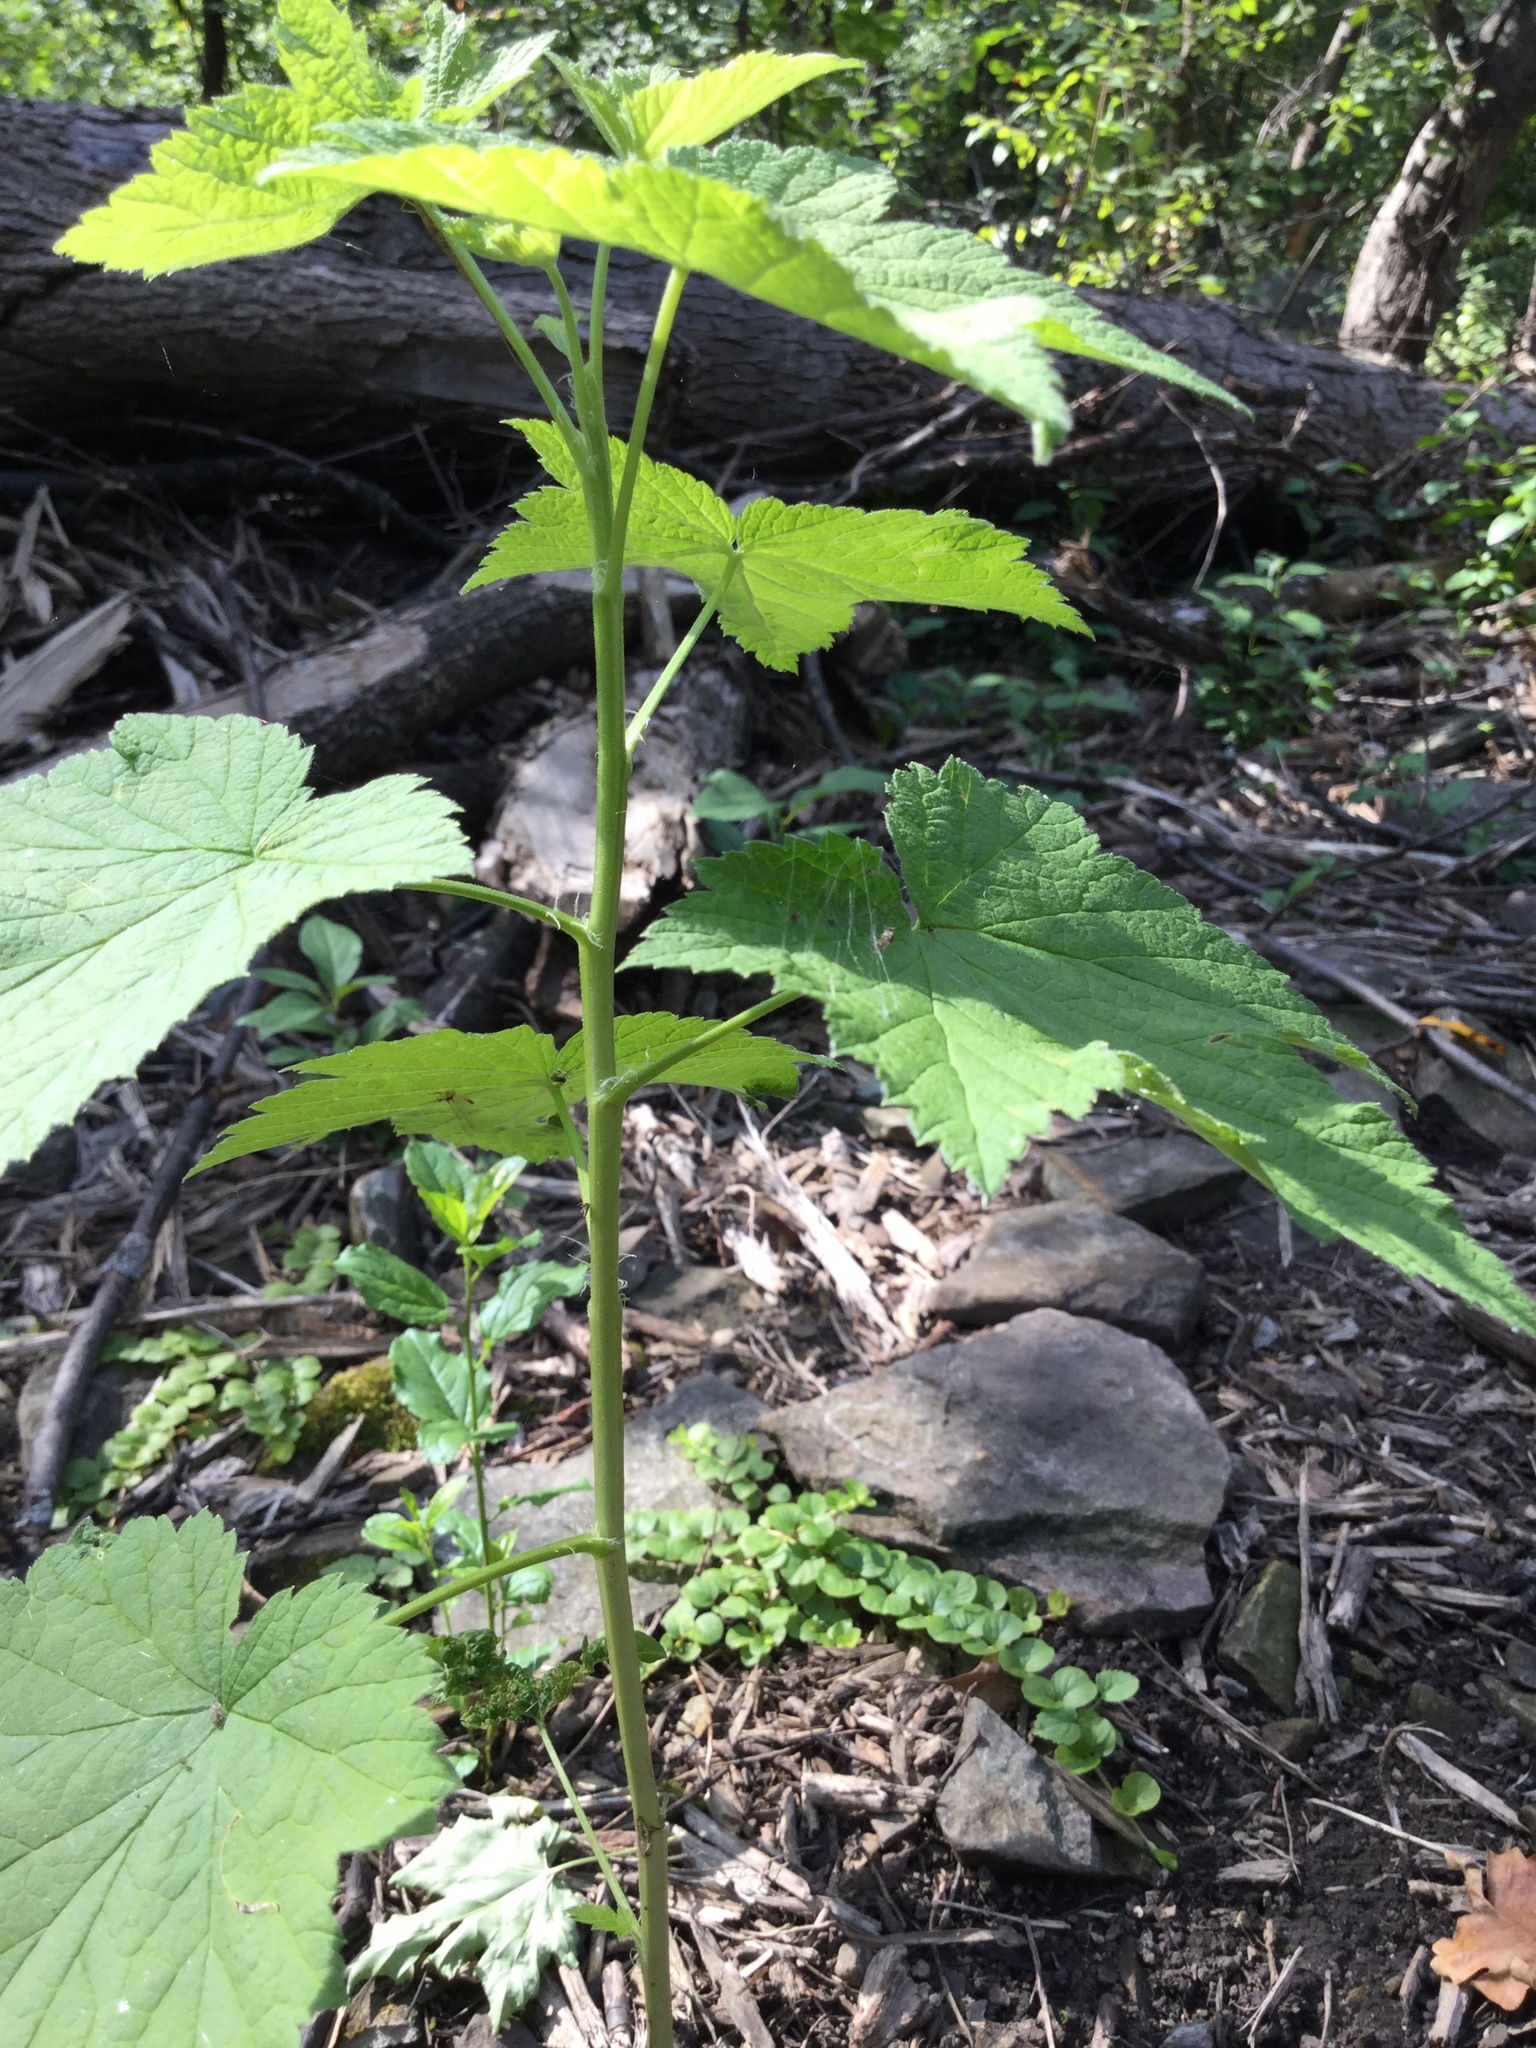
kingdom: Plantae
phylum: Tracheophyta
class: Magnoliopsida
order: Saxifragales
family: Grossulariaceae
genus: Ribes
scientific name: Ribes americanum
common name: American black currant
